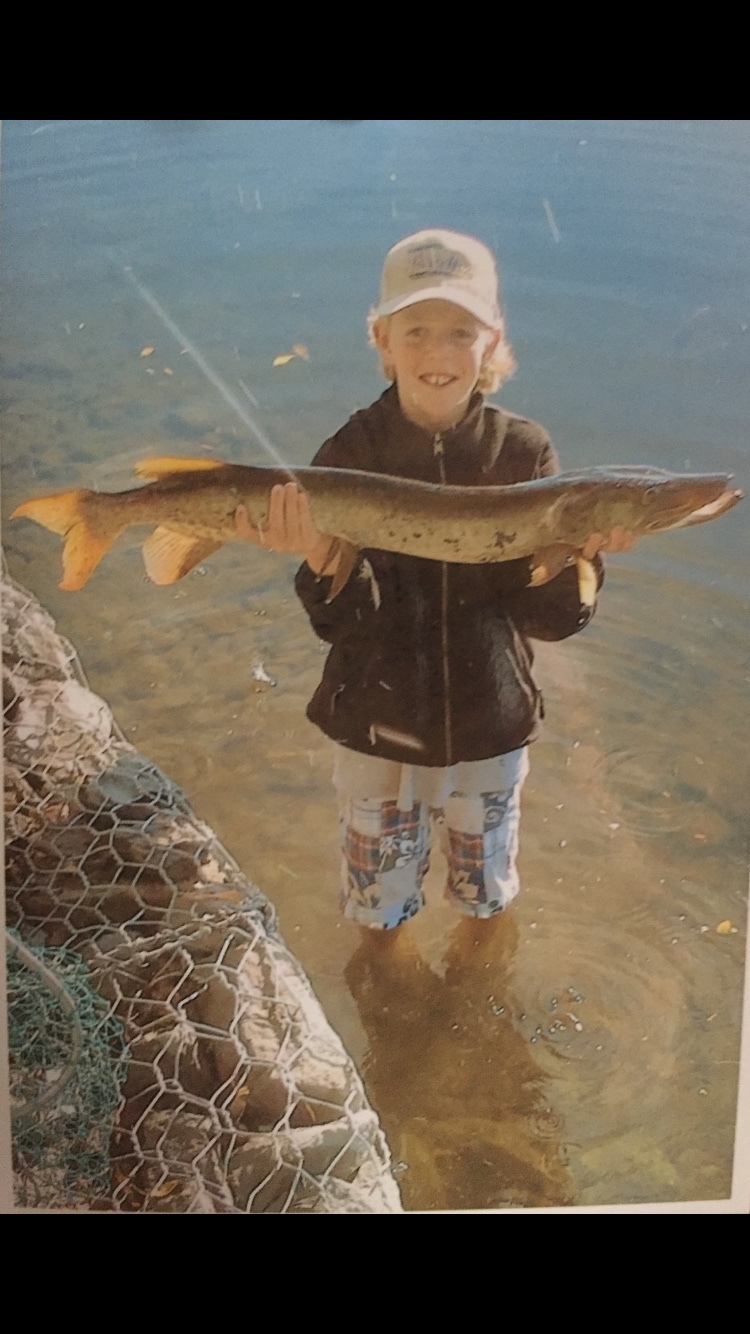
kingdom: Animalia
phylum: Chordata
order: Esociformes
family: Esocidae
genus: Esox
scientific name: Esox masquinongy
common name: Muskellunge
